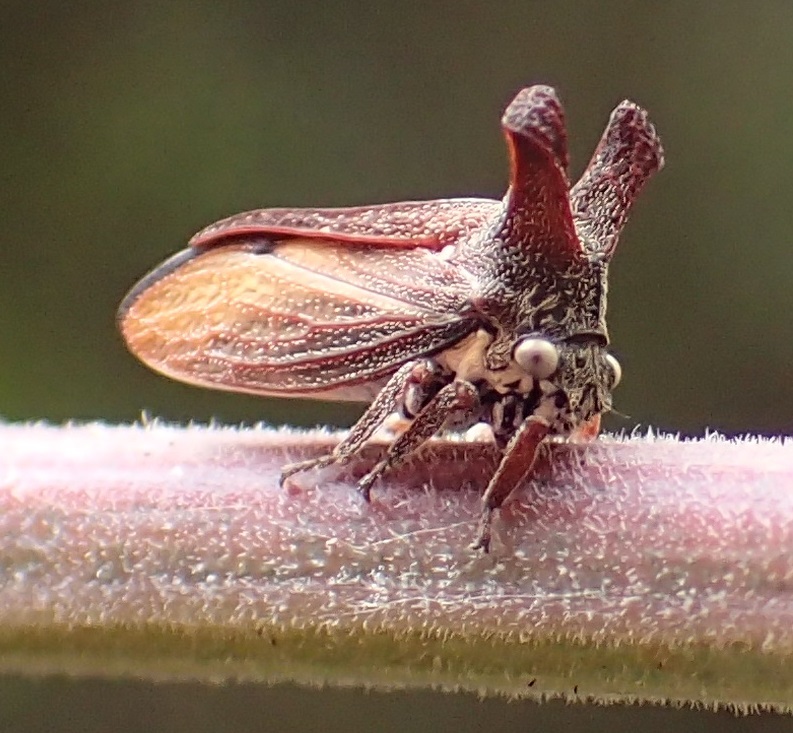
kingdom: Animalia
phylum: Arthropoda
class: Insecta
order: Hemiptera
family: Membracidae
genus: Ceraon
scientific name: Ceraon tasmaniae
